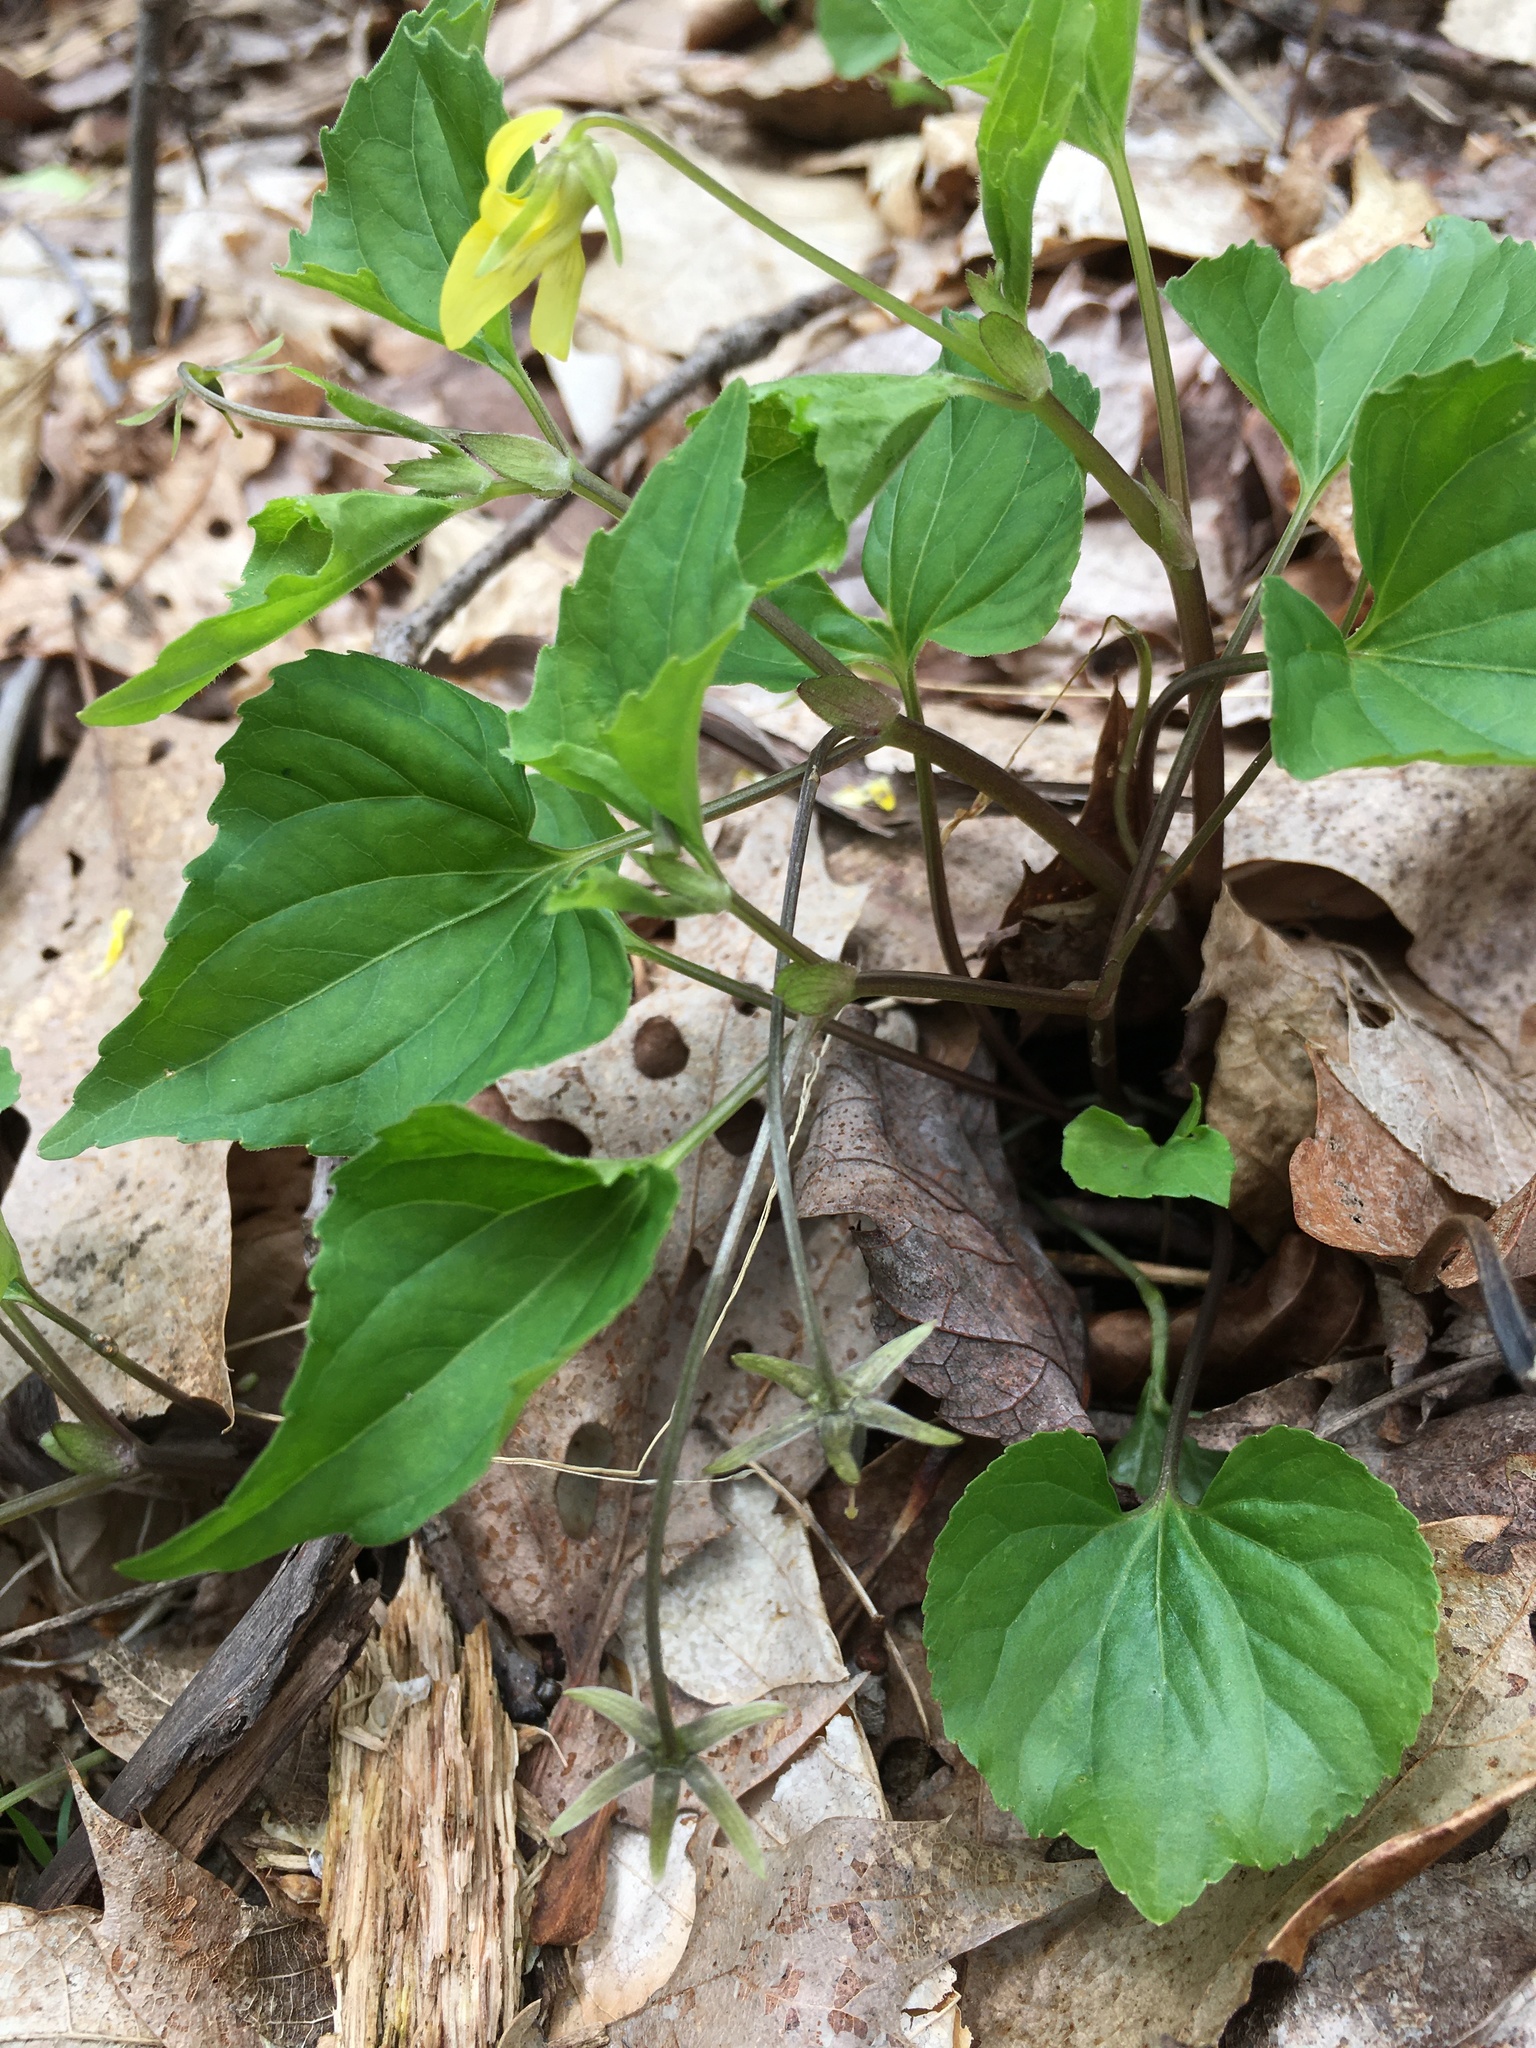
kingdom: Plantae
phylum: Tracheophyta
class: Magnoliopsida
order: Malpighiales
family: Violaceae
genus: Viola
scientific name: Viola eriocarpa
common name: Smooth yellow violet
